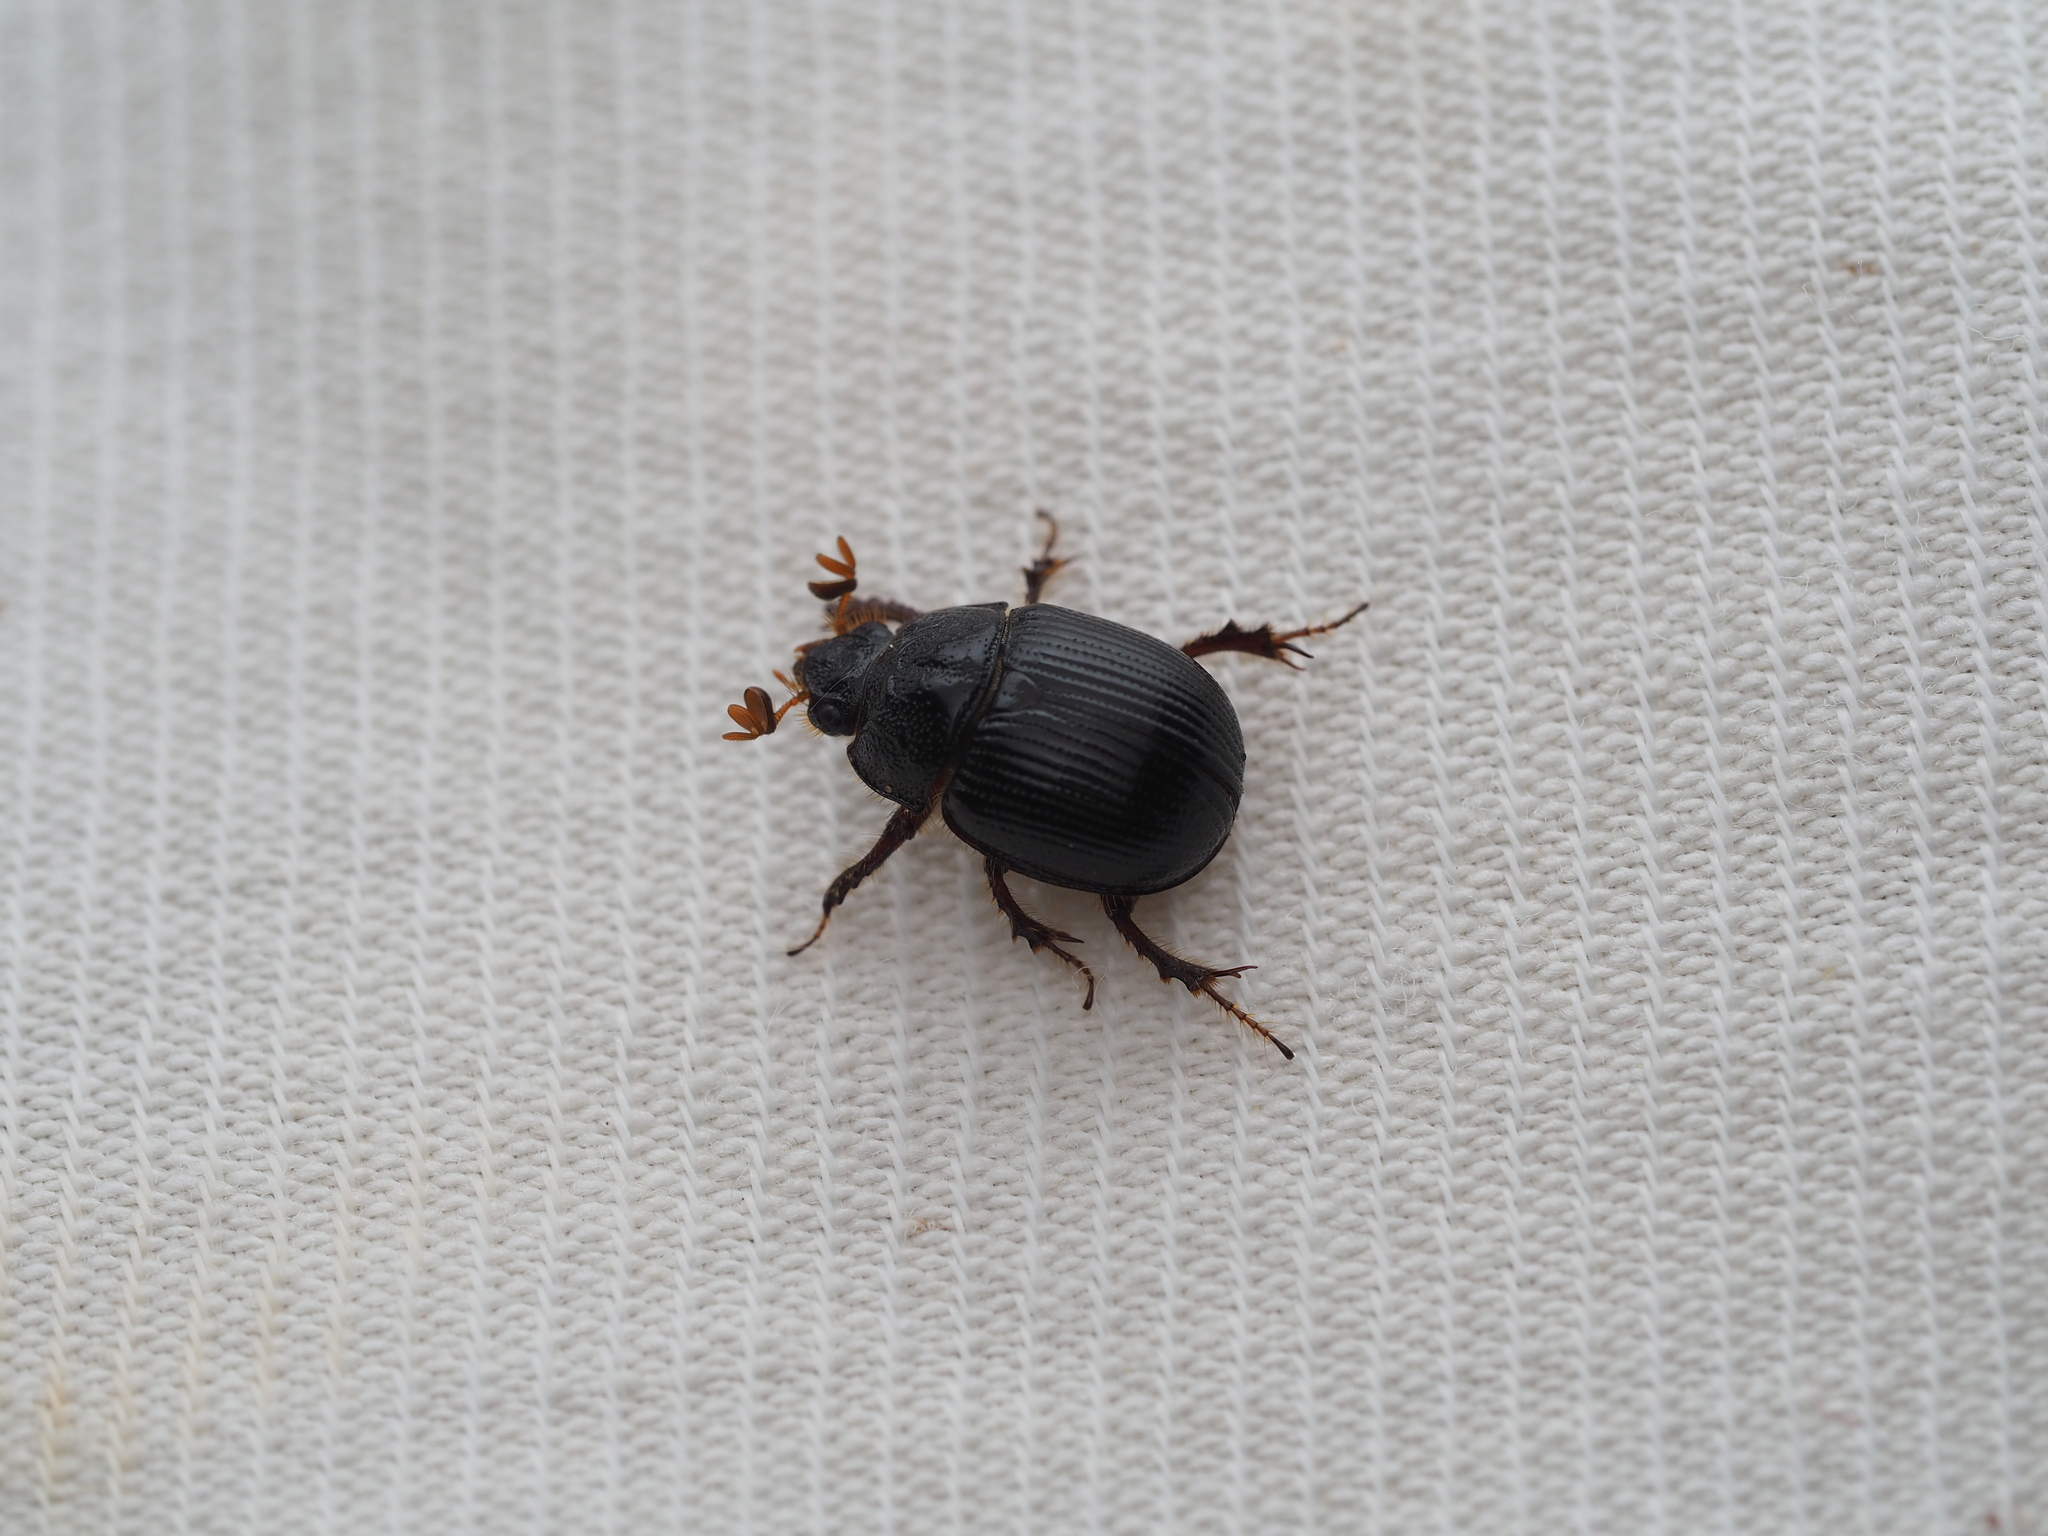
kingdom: Animalia
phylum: Arthropoda
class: Insecta
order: Coleoptera
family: Geotrupidae
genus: Odonteus
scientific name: Odonteus armiger
